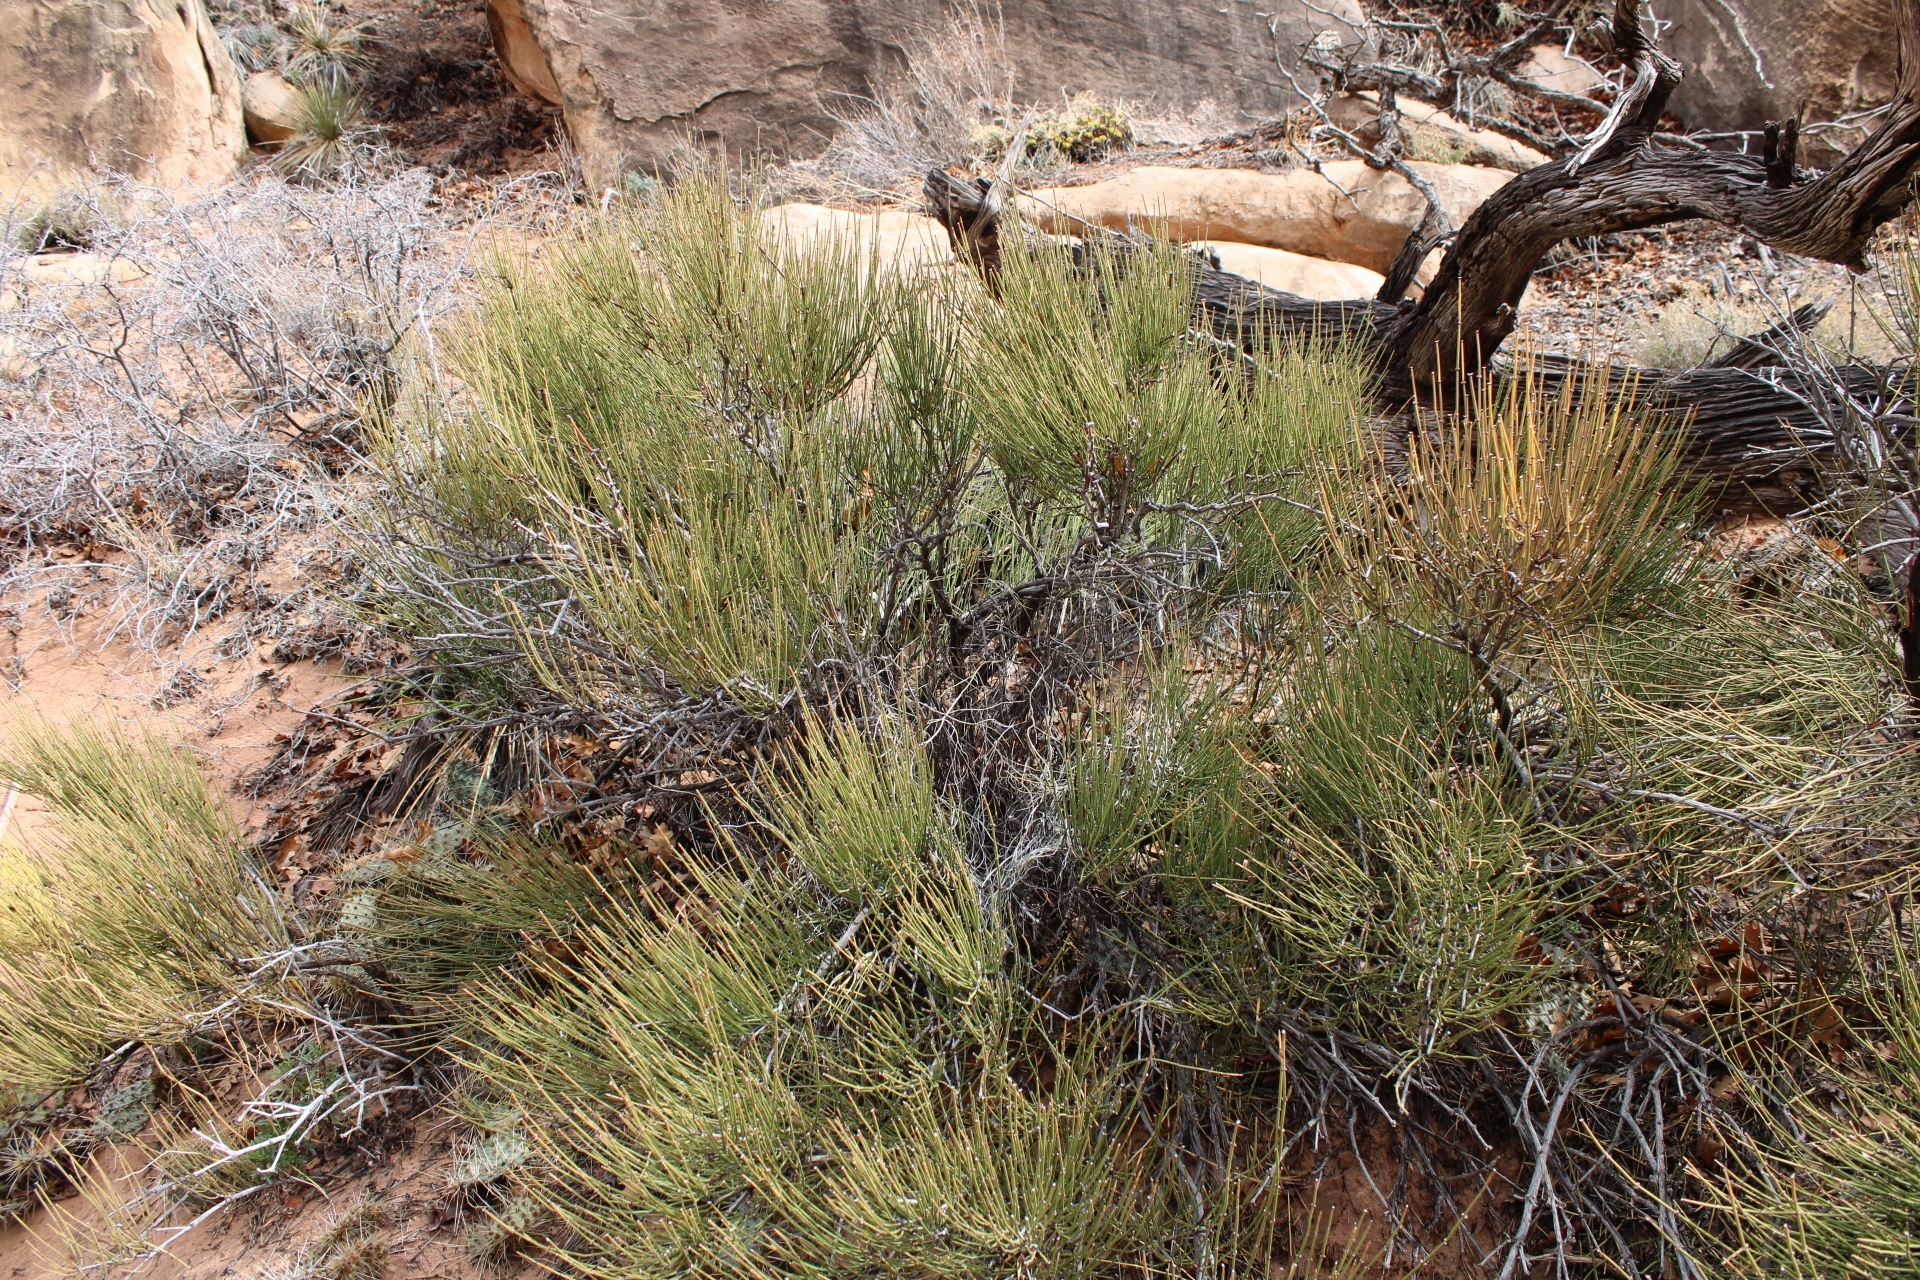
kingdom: Plantae
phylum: Tracheophyta
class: Gnetopsida
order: Ephedrales
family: Ephedraceae
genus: Ephedra
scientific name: Ephedra viridis
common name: Green ephedra
